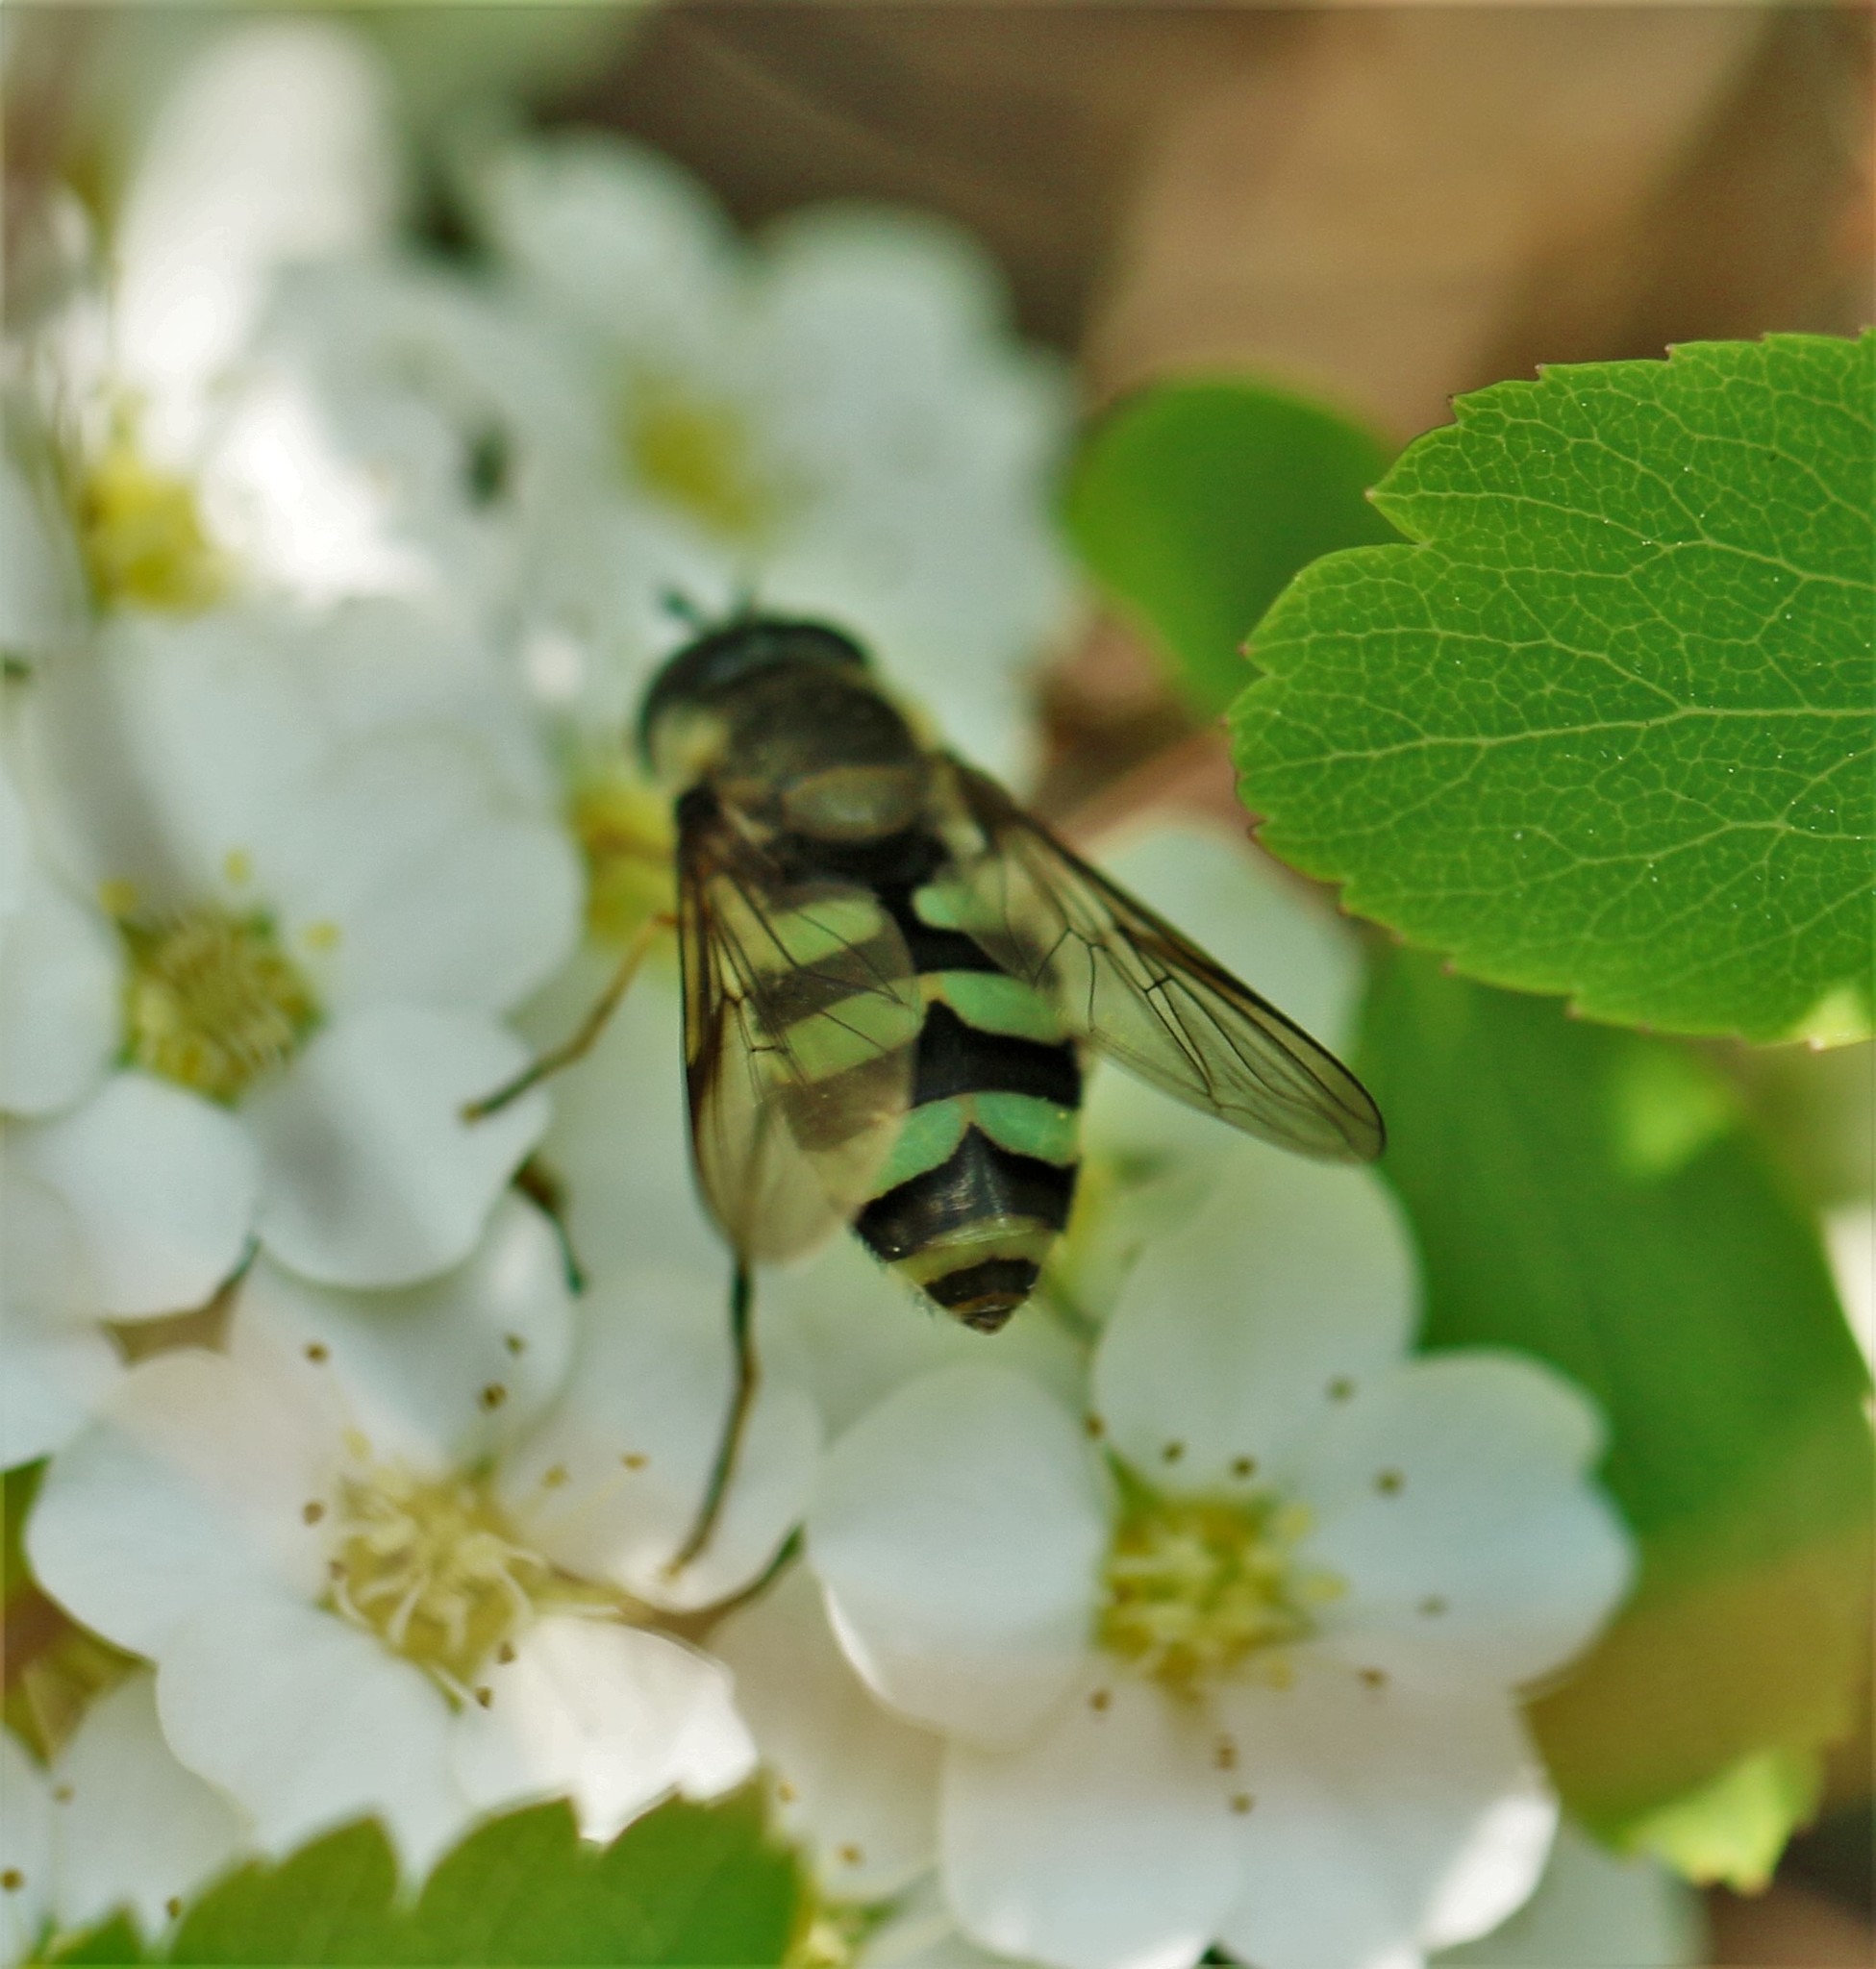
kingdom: Animalia
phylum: Arthropoda
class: Insecta
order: Diptera
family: Syrphidae
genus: Megasyrphus
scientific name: Megasyrphus laxus
